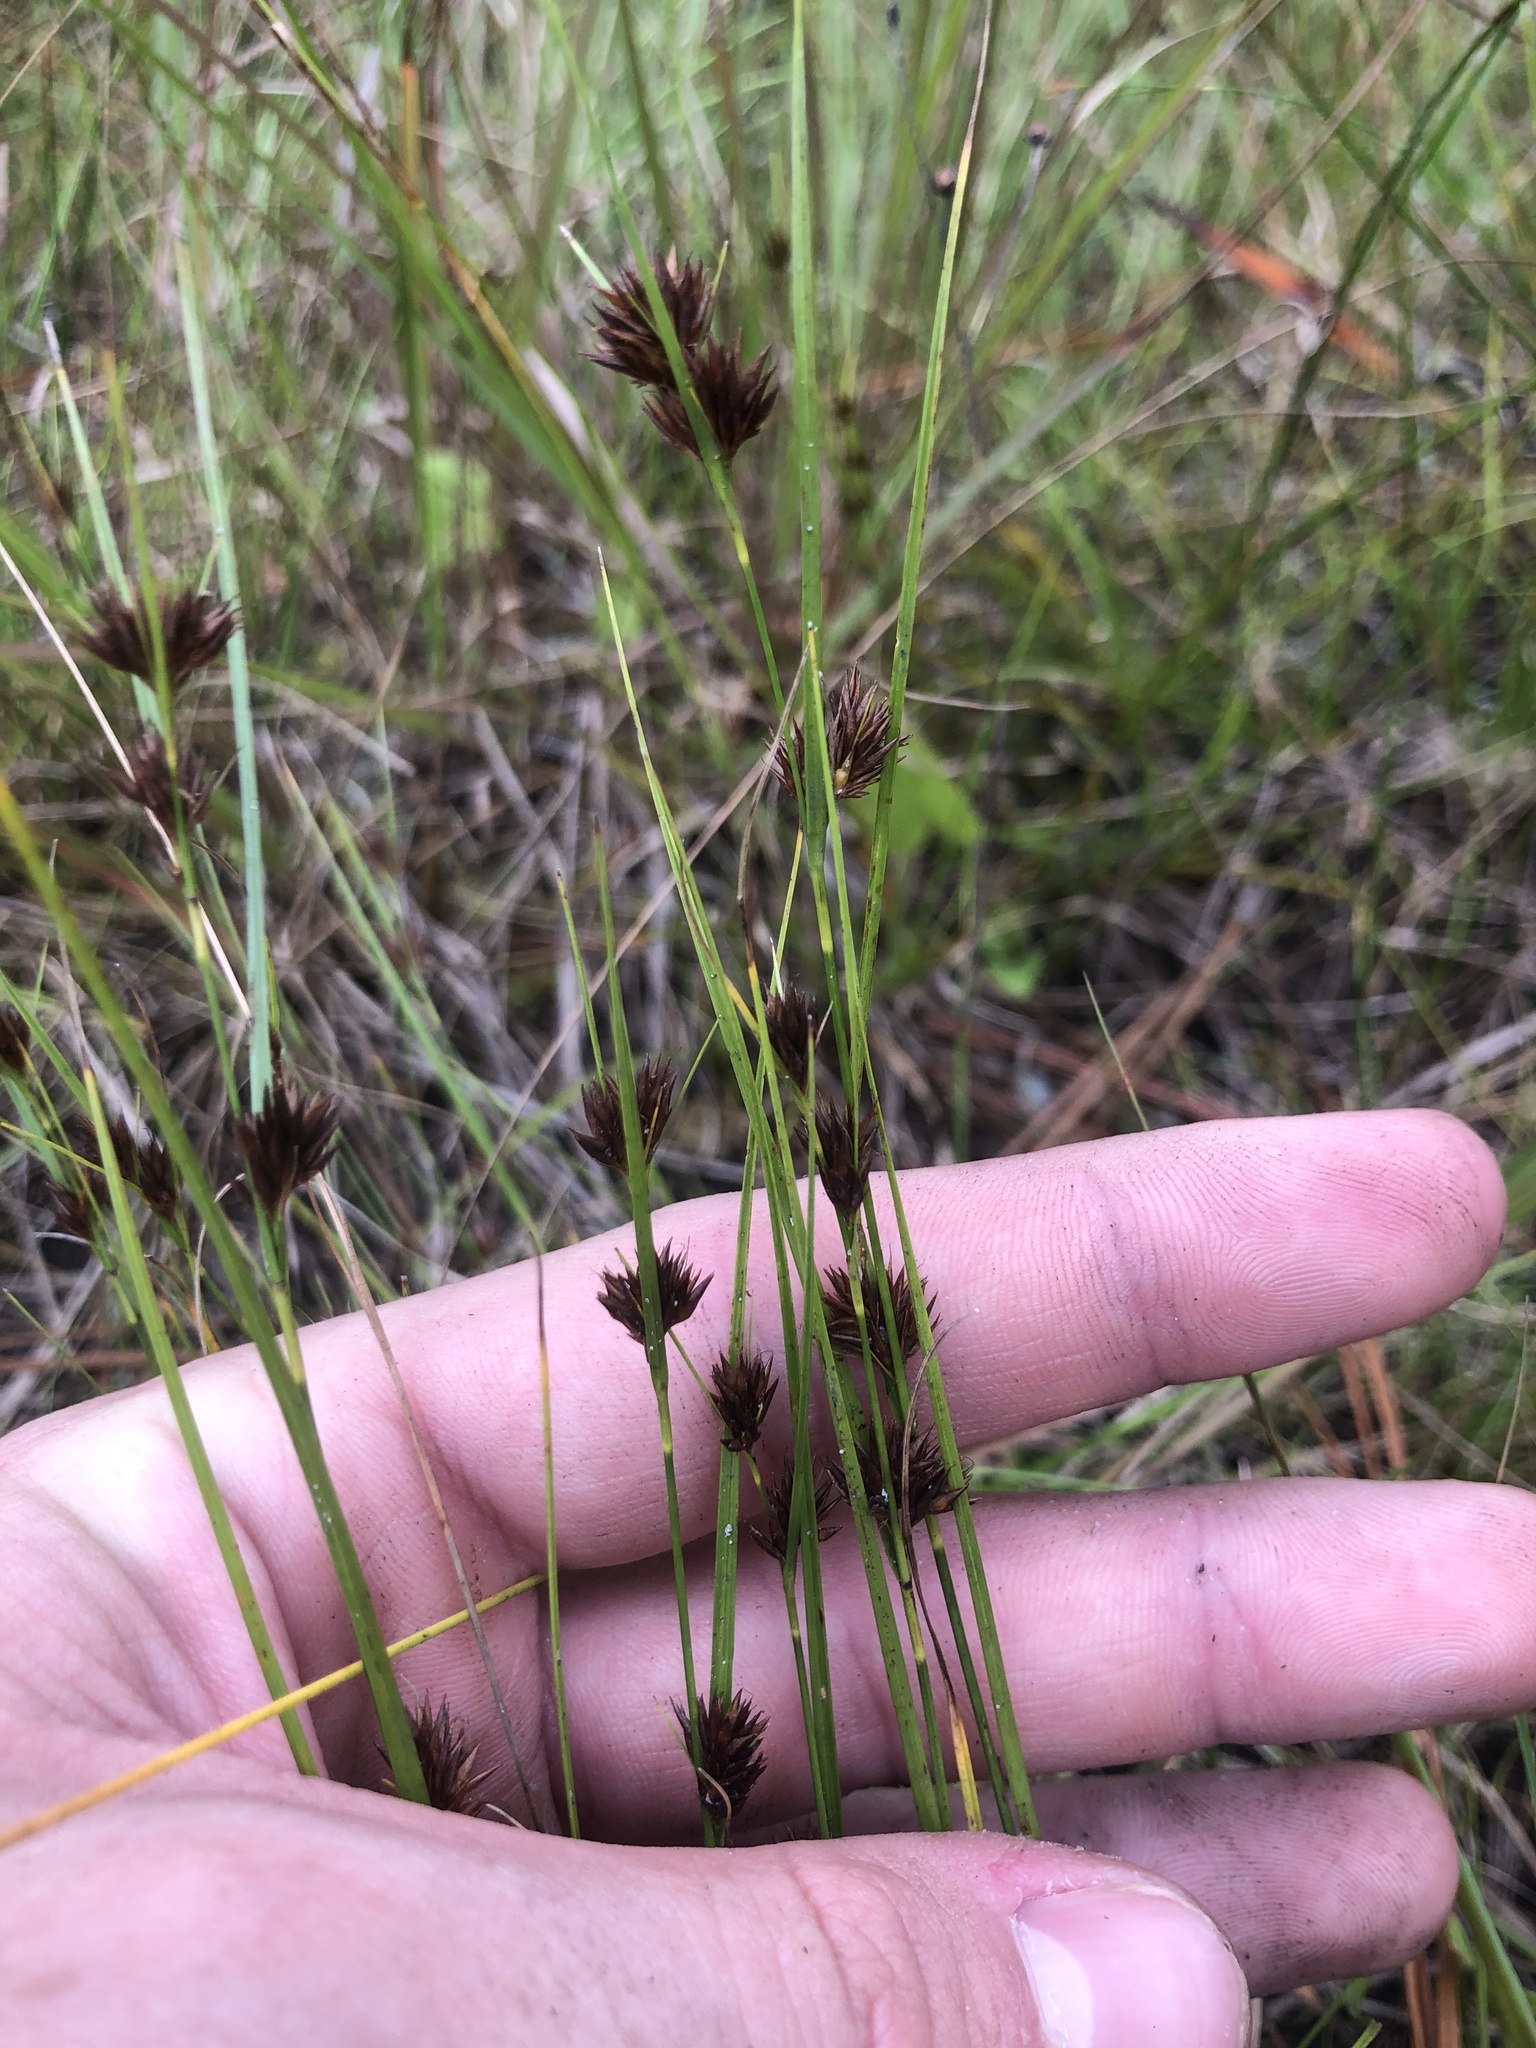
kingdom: Plantae
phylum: Tracheophyta
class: Liliopsida
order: Poales
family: Cyperaceae
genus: Rhynchospora
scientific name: Rhynchospora chalarocephala
